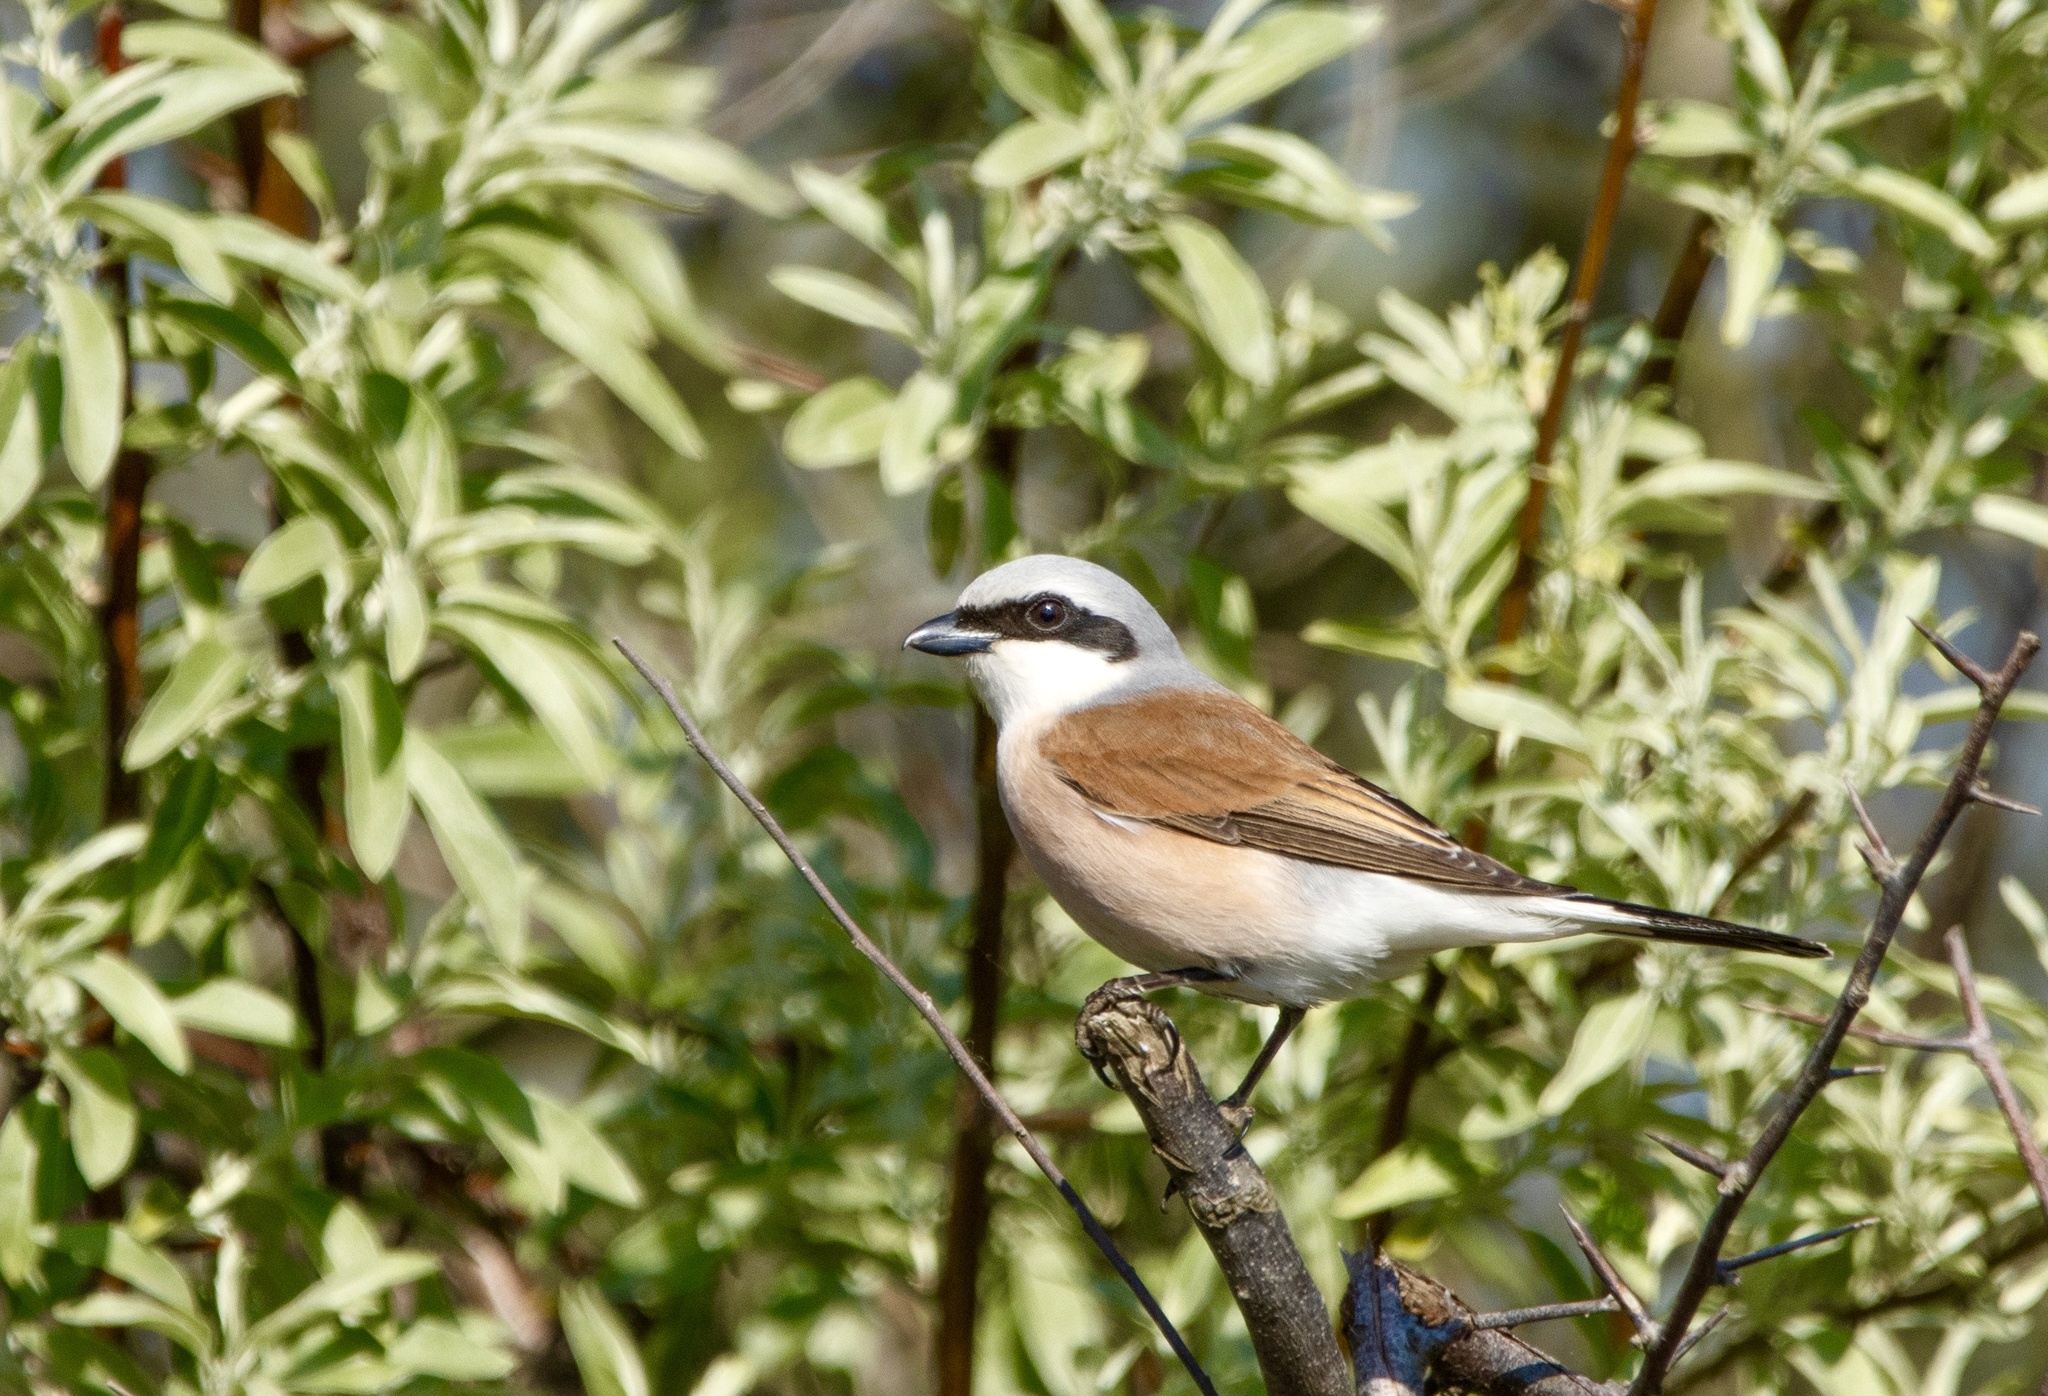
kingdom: Animalia
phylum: Chordata
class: Aves
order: Passeriformes
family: Laniidae
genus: Lanius
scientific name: Lanius collurio
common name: Red-backed shrike
